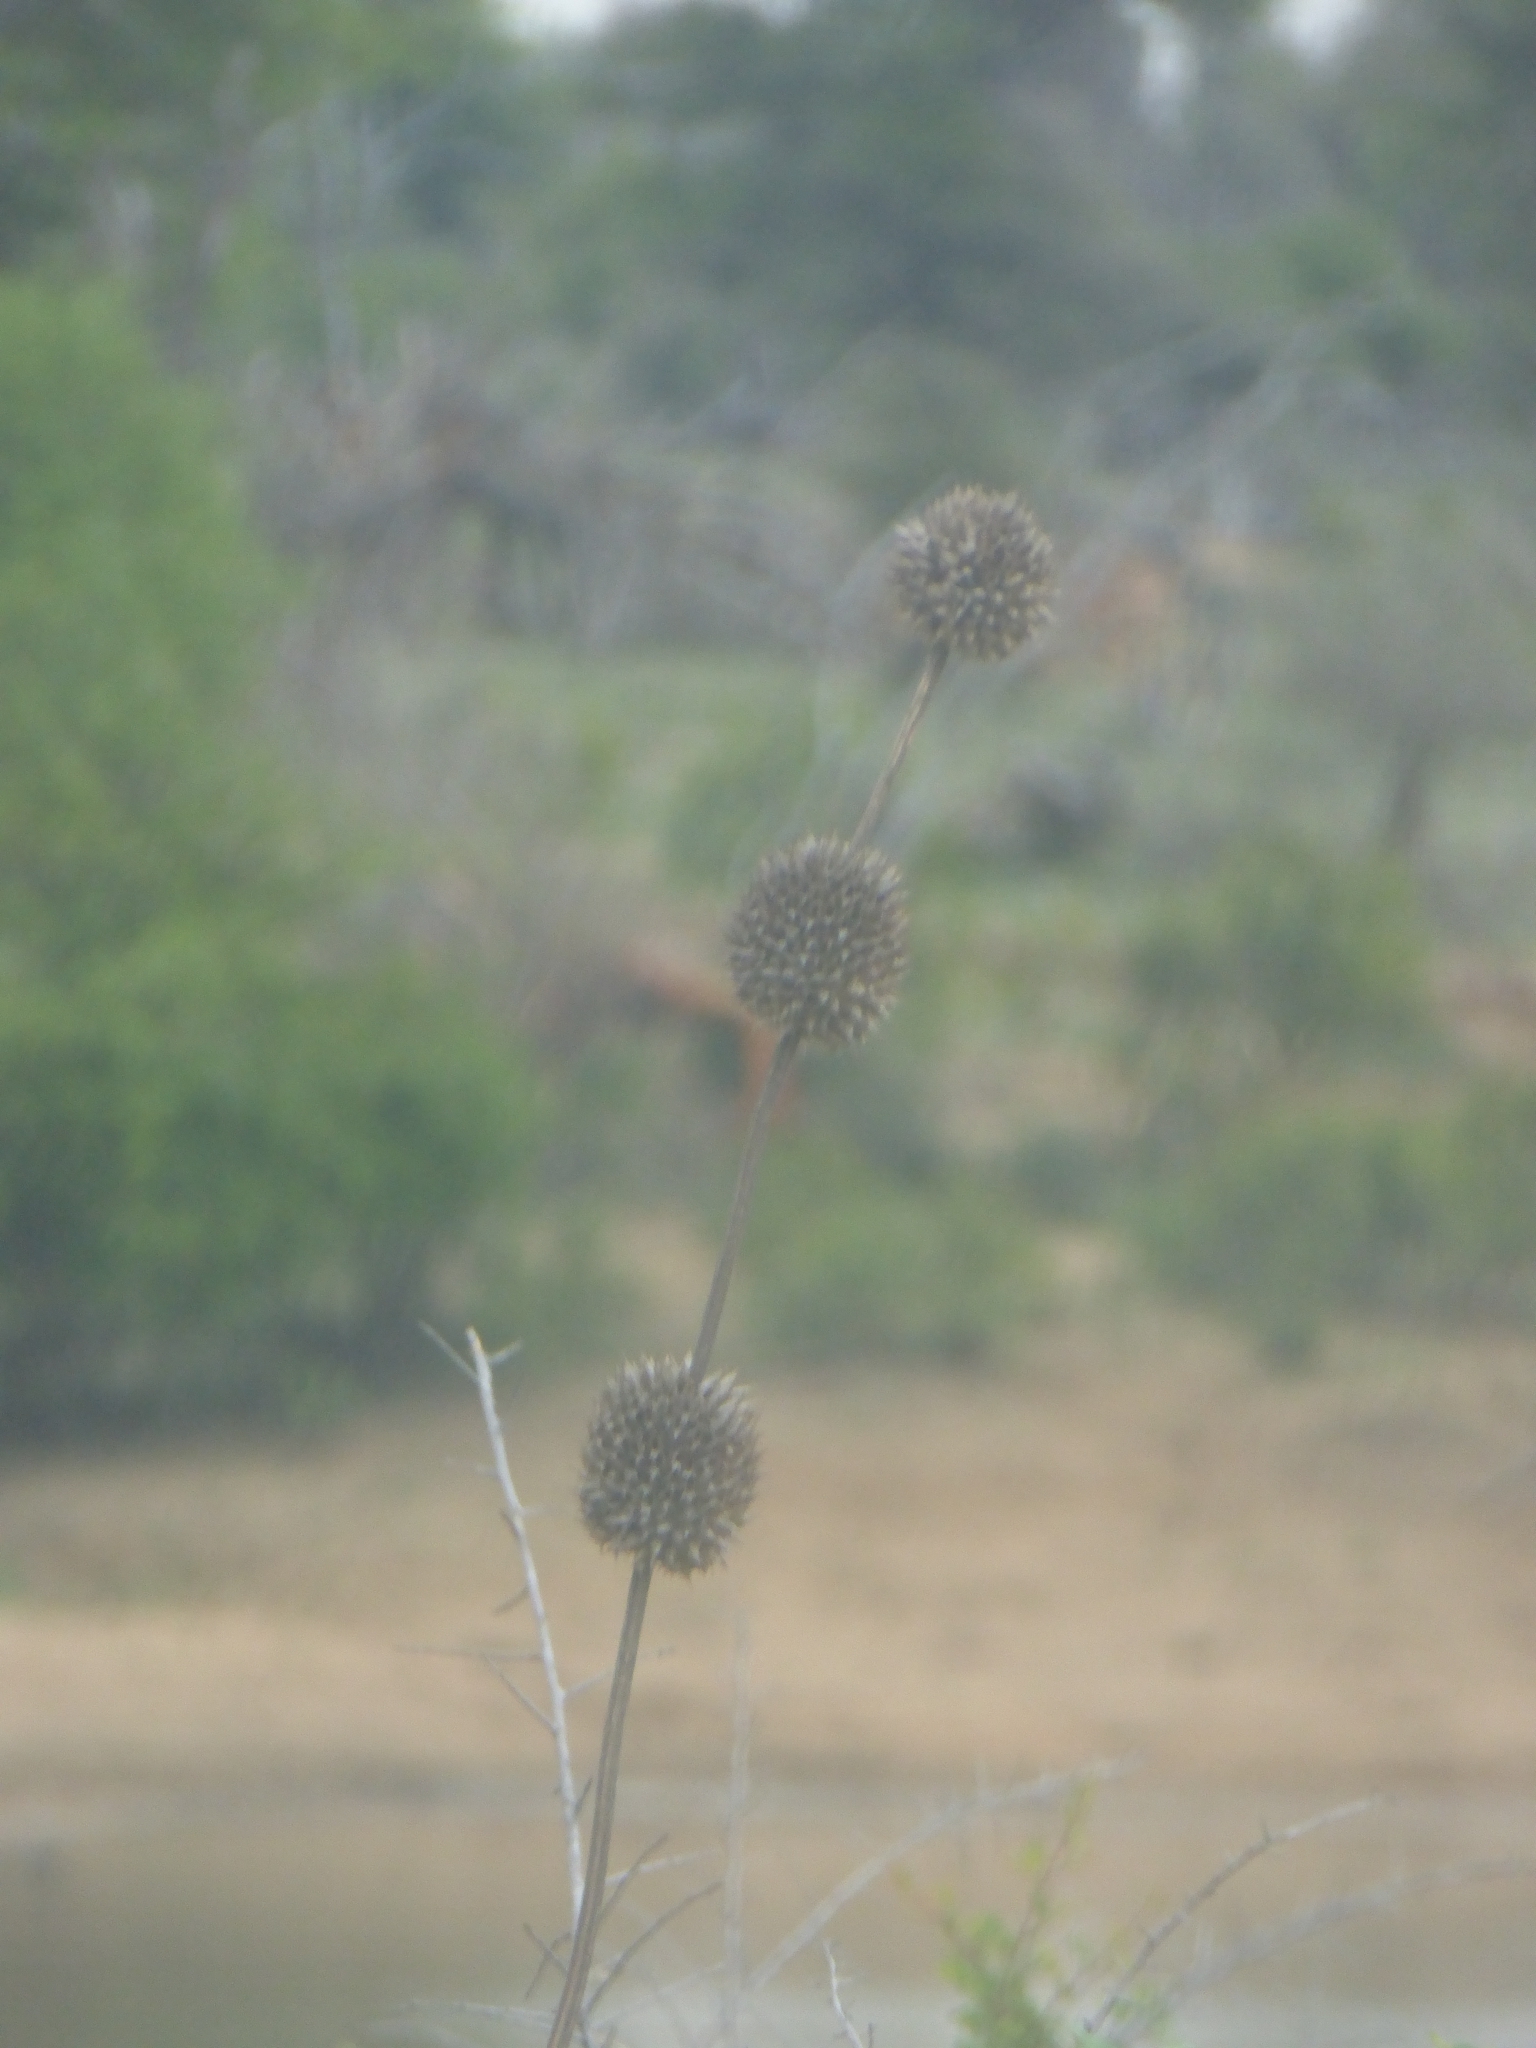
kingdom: Plantae
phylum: Tracheophyta
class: Magnoliopsida
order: Lamiales
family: Lamiaceae
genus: Leonotis
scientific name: Leonotis nepetifolia
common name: Christmas candlestick
